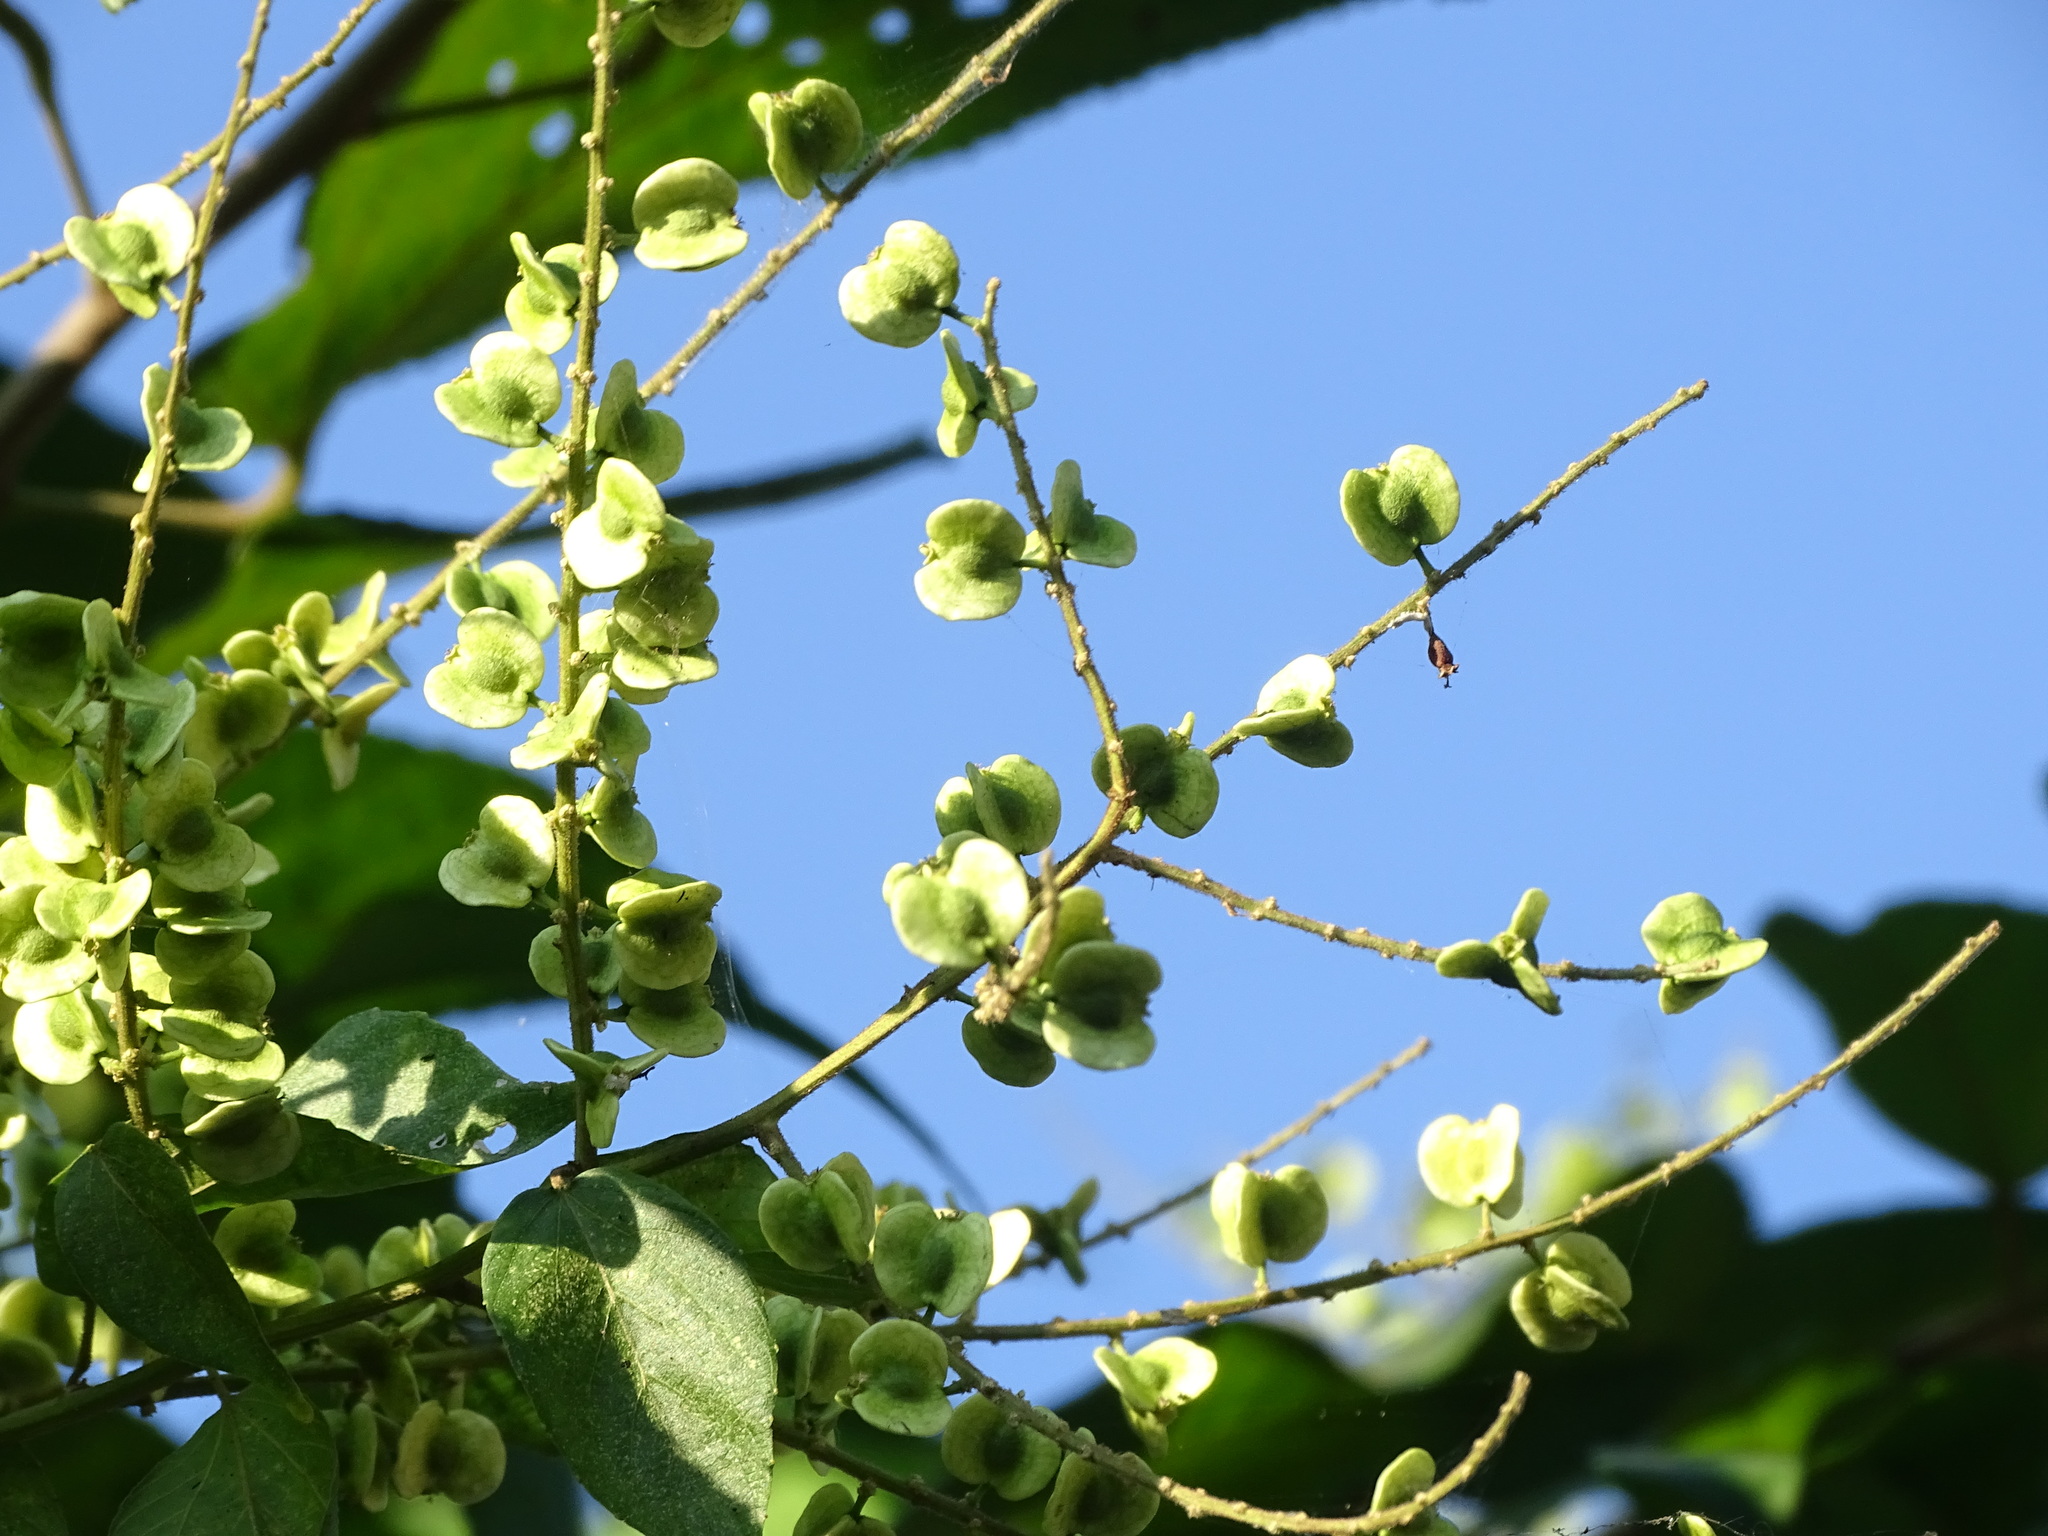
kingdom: Plantae
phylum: Tracheophyta
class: Magnoliopsida
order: Rosales
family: Rhamnaceae
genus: Gouania
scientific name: Gouania lupuloides
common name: Chewstick
